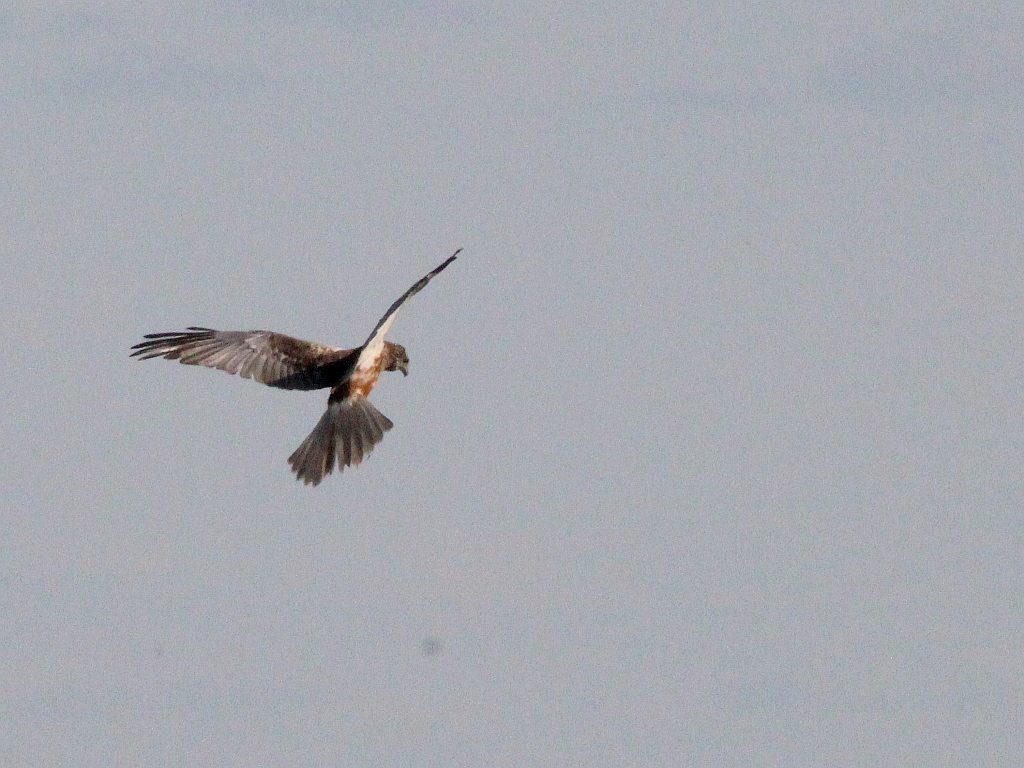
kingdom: Animalia
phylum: Chordata
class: Aves
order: Accipitriformes
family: Accipitridae
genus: Circus
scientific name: Circus aeruginosus
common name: Western marsh harrier
